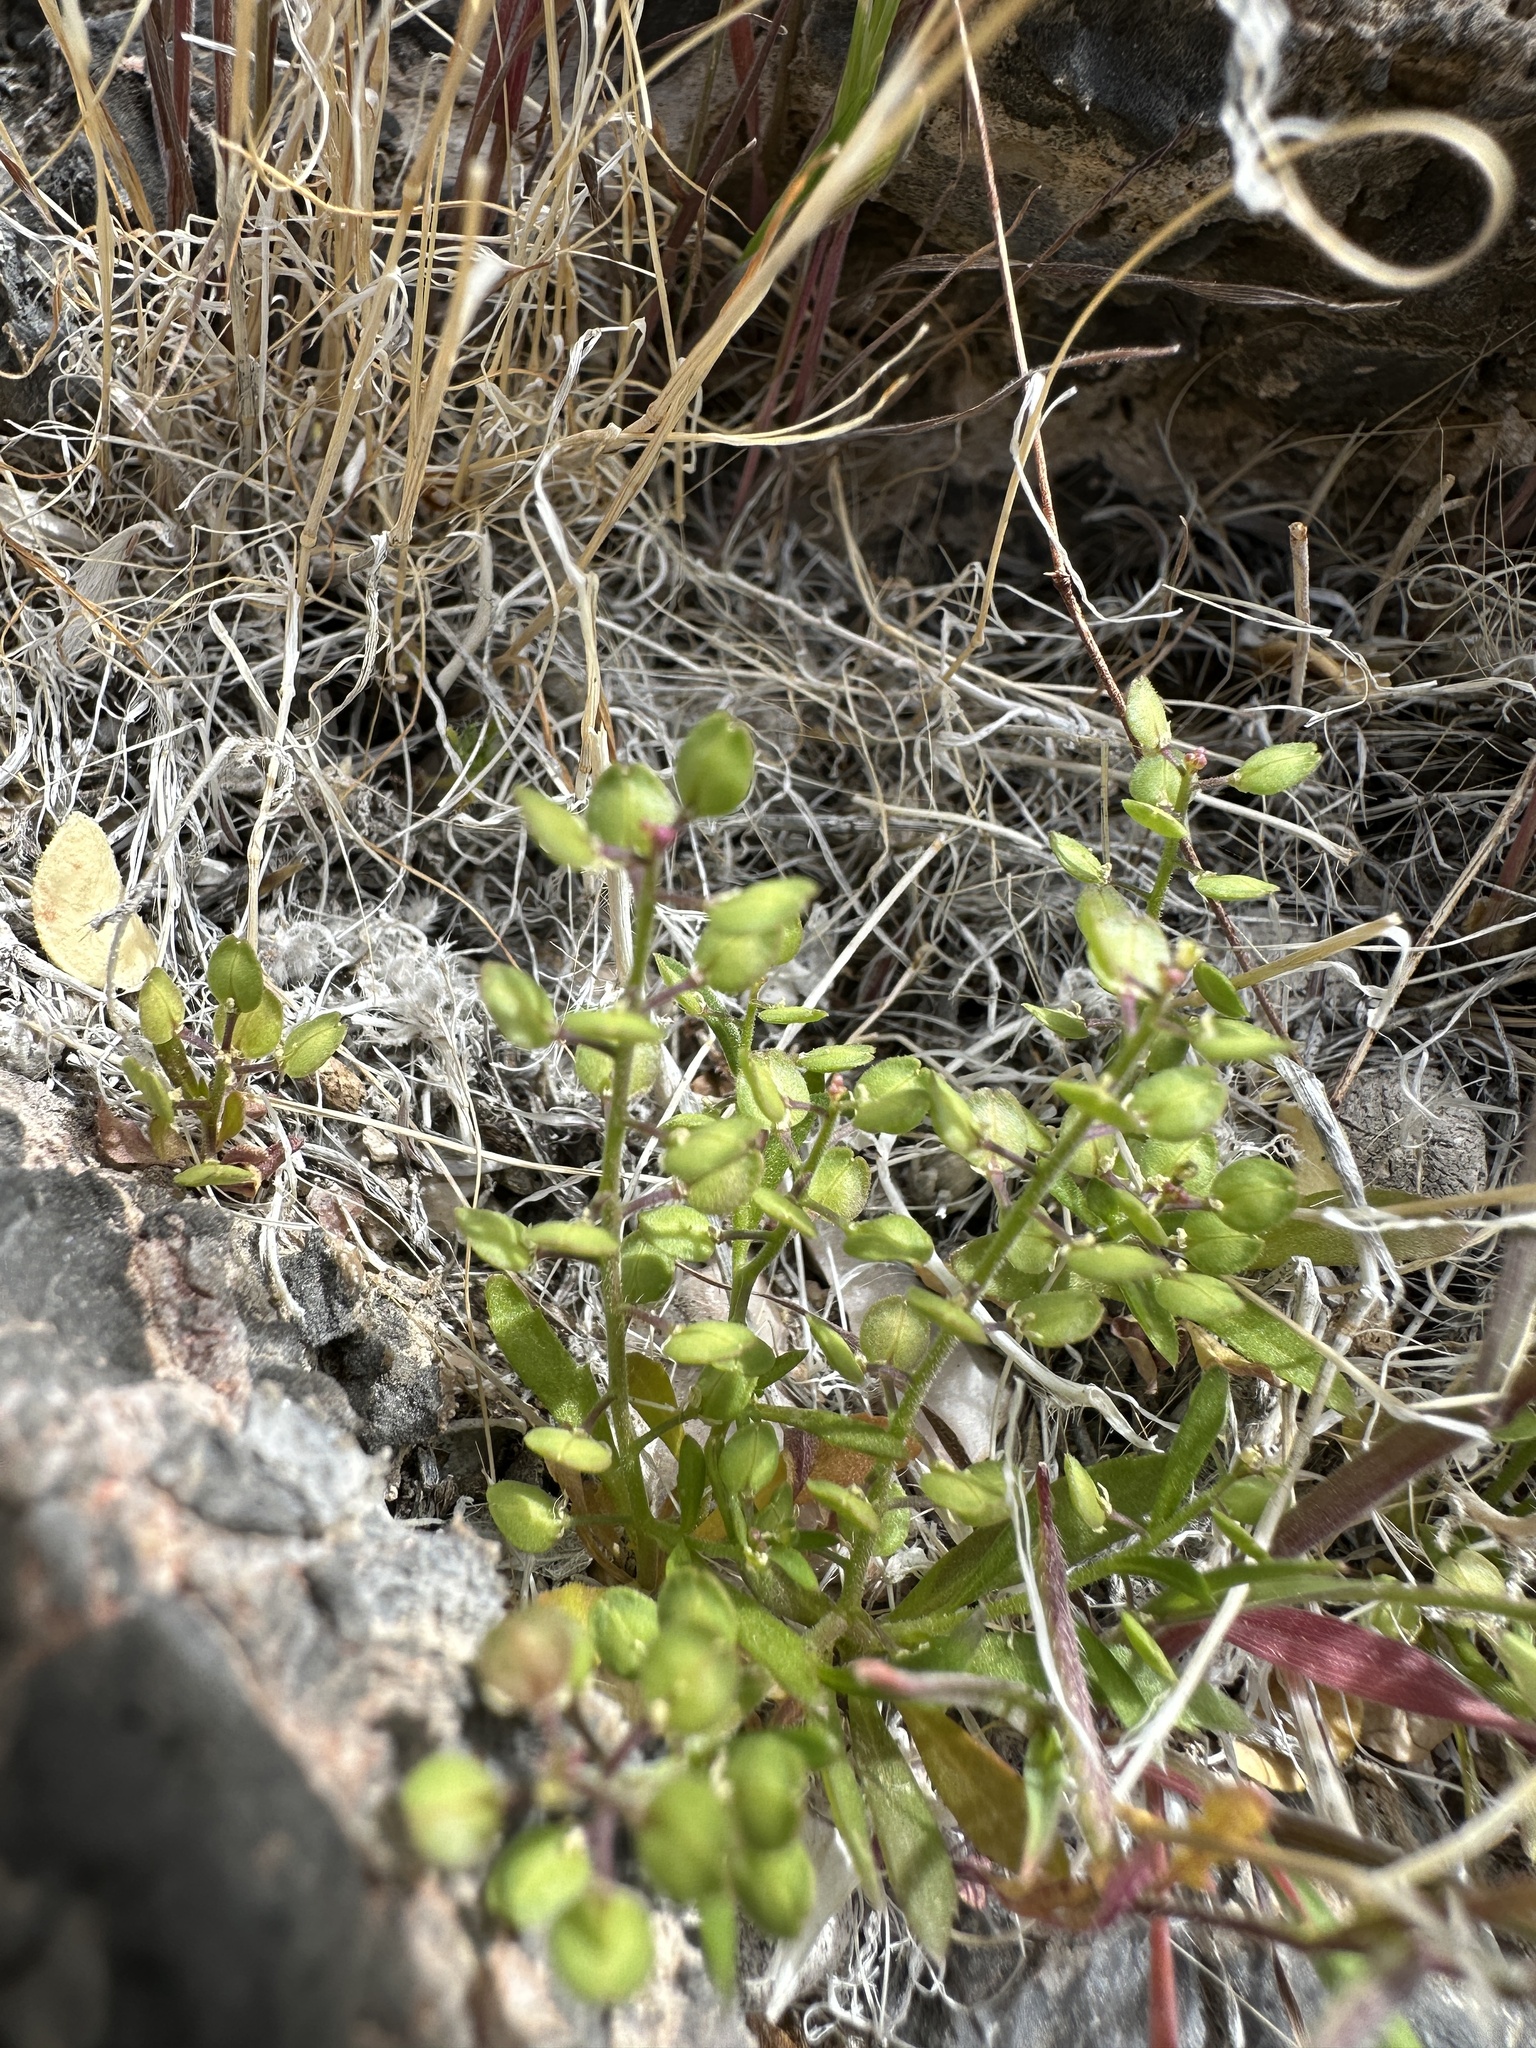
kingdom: Plantae
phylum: Tracheophyta
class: Magnoliopsida
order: Brassicales
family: Brassicaceae
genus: Lepidium
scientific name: Lepidium lasiocarpum
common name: Hairy-pod pepperwort
